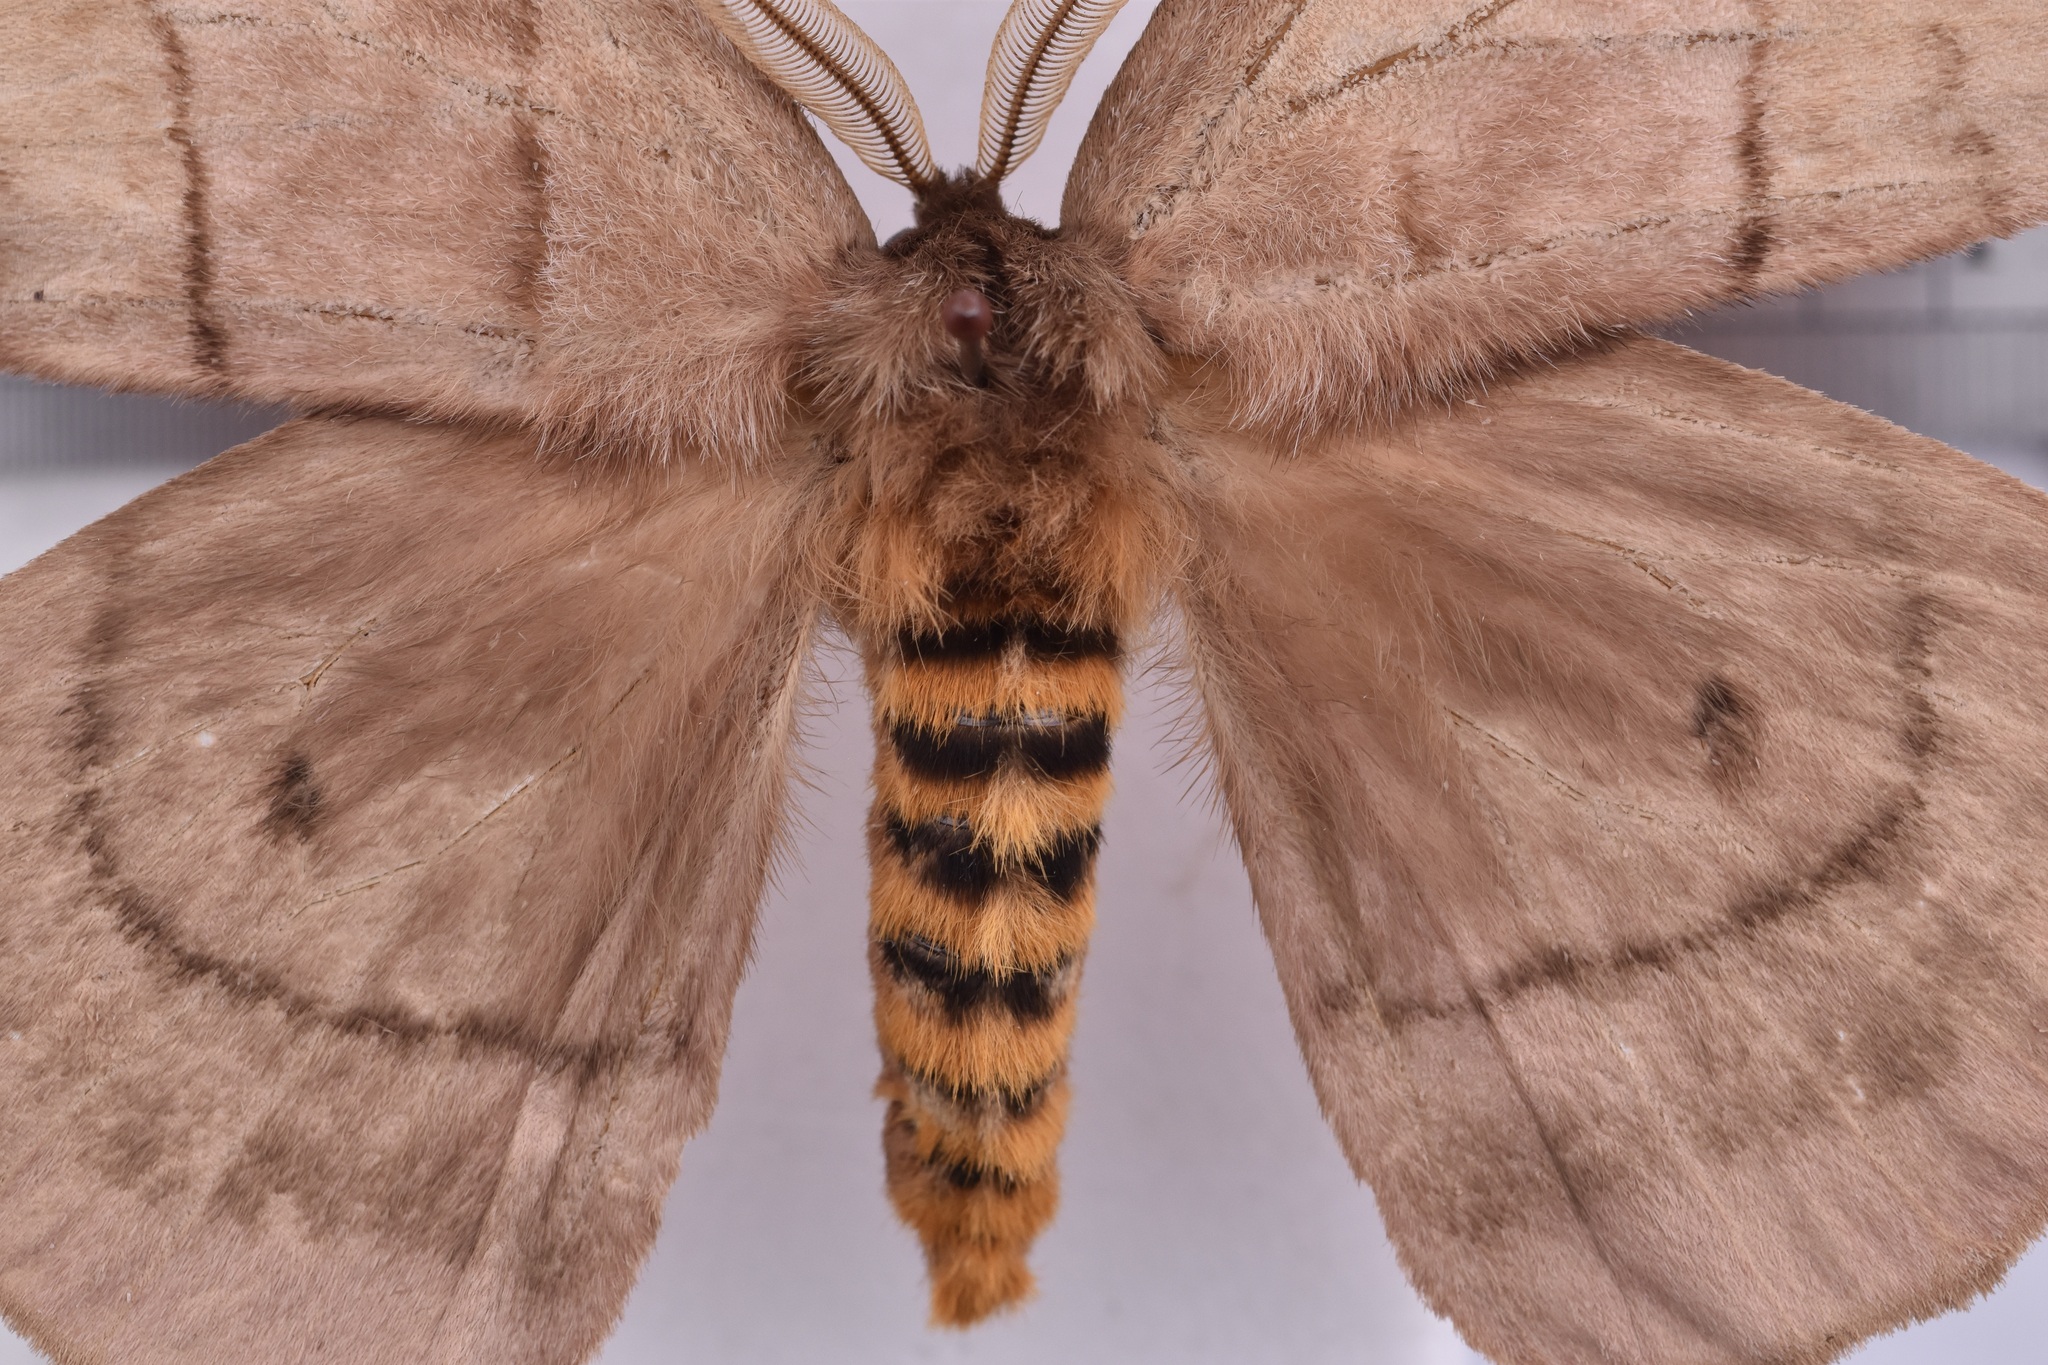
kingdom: Animalia
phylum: Arthropoda
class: Insecta
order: Lepidoptera
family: Saturniidae
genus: Periphoba
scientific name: Periphoba augur
